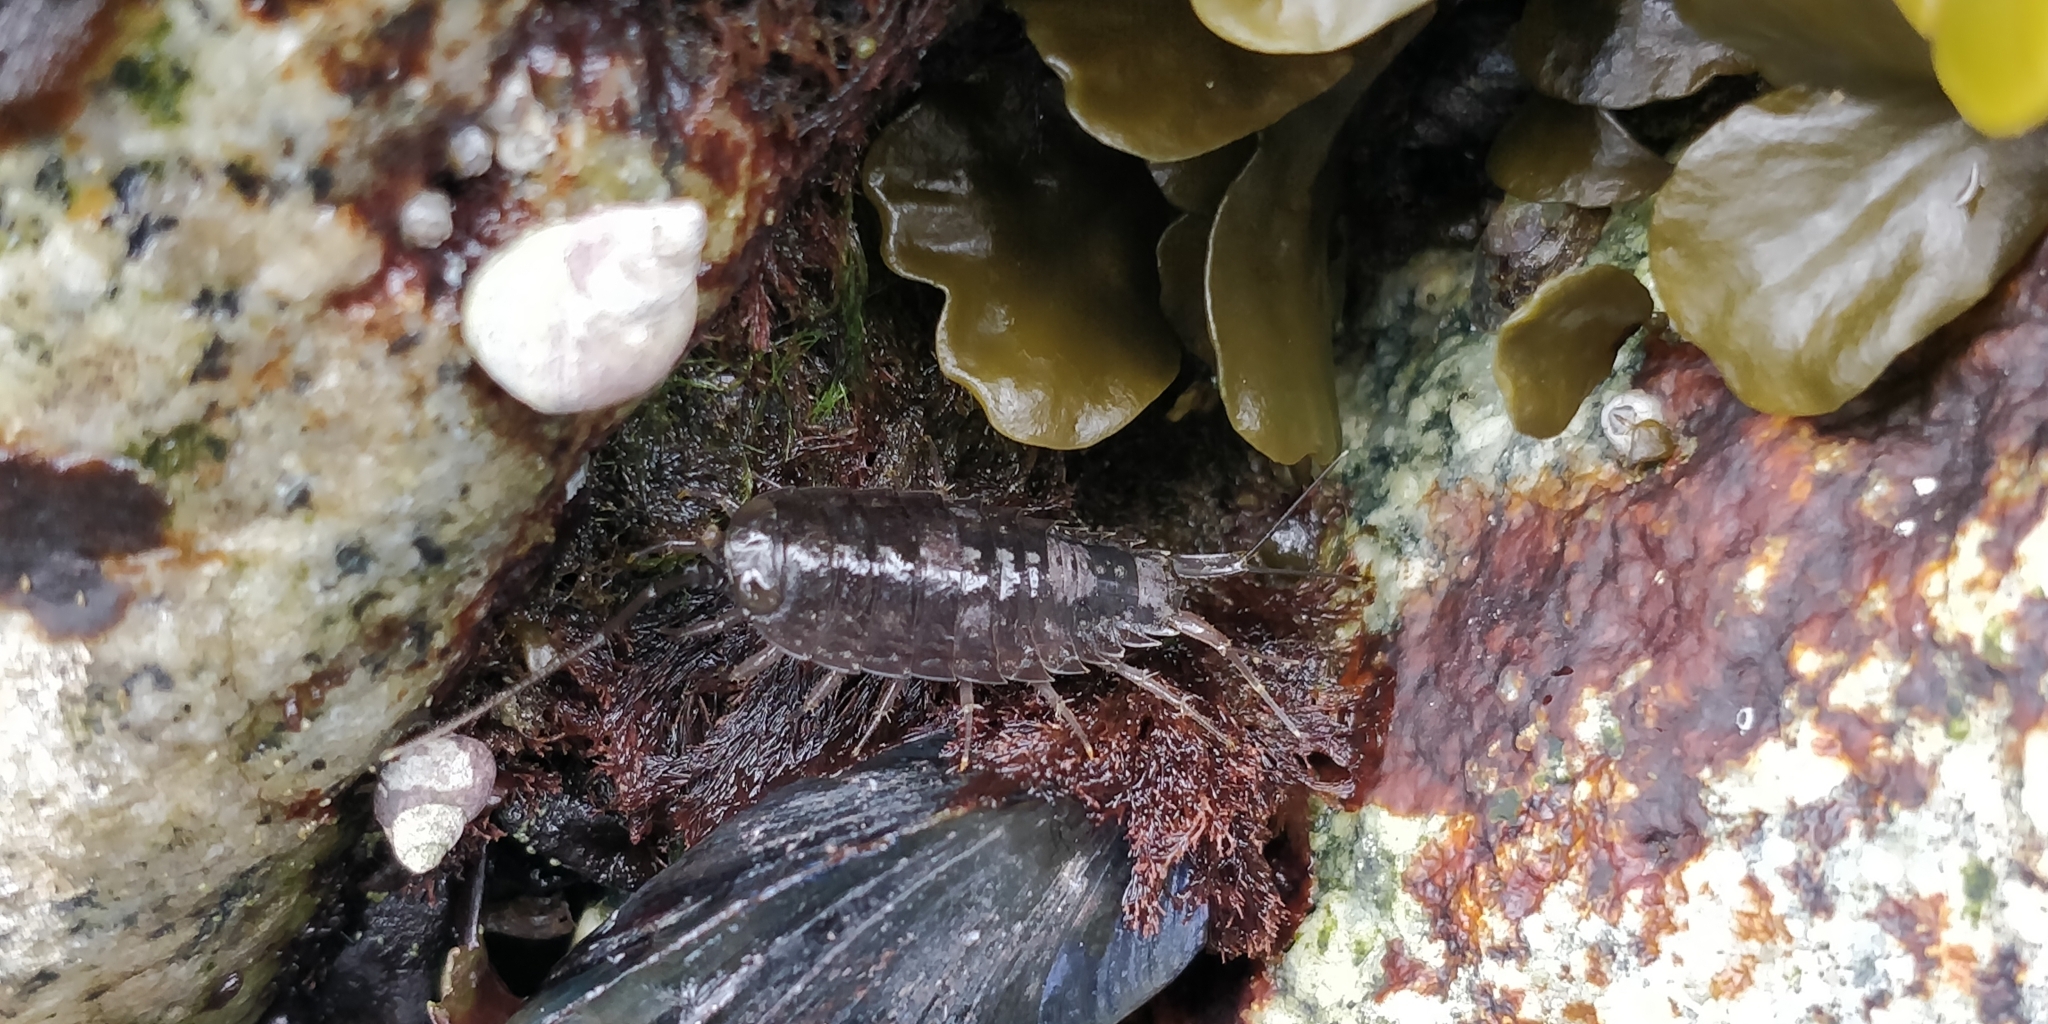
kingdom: Animalia
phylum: Arthropoda
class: Malacostraca
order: Isopoda
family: Ligiidae
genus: Ligia
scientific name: Ligia occidentalis
